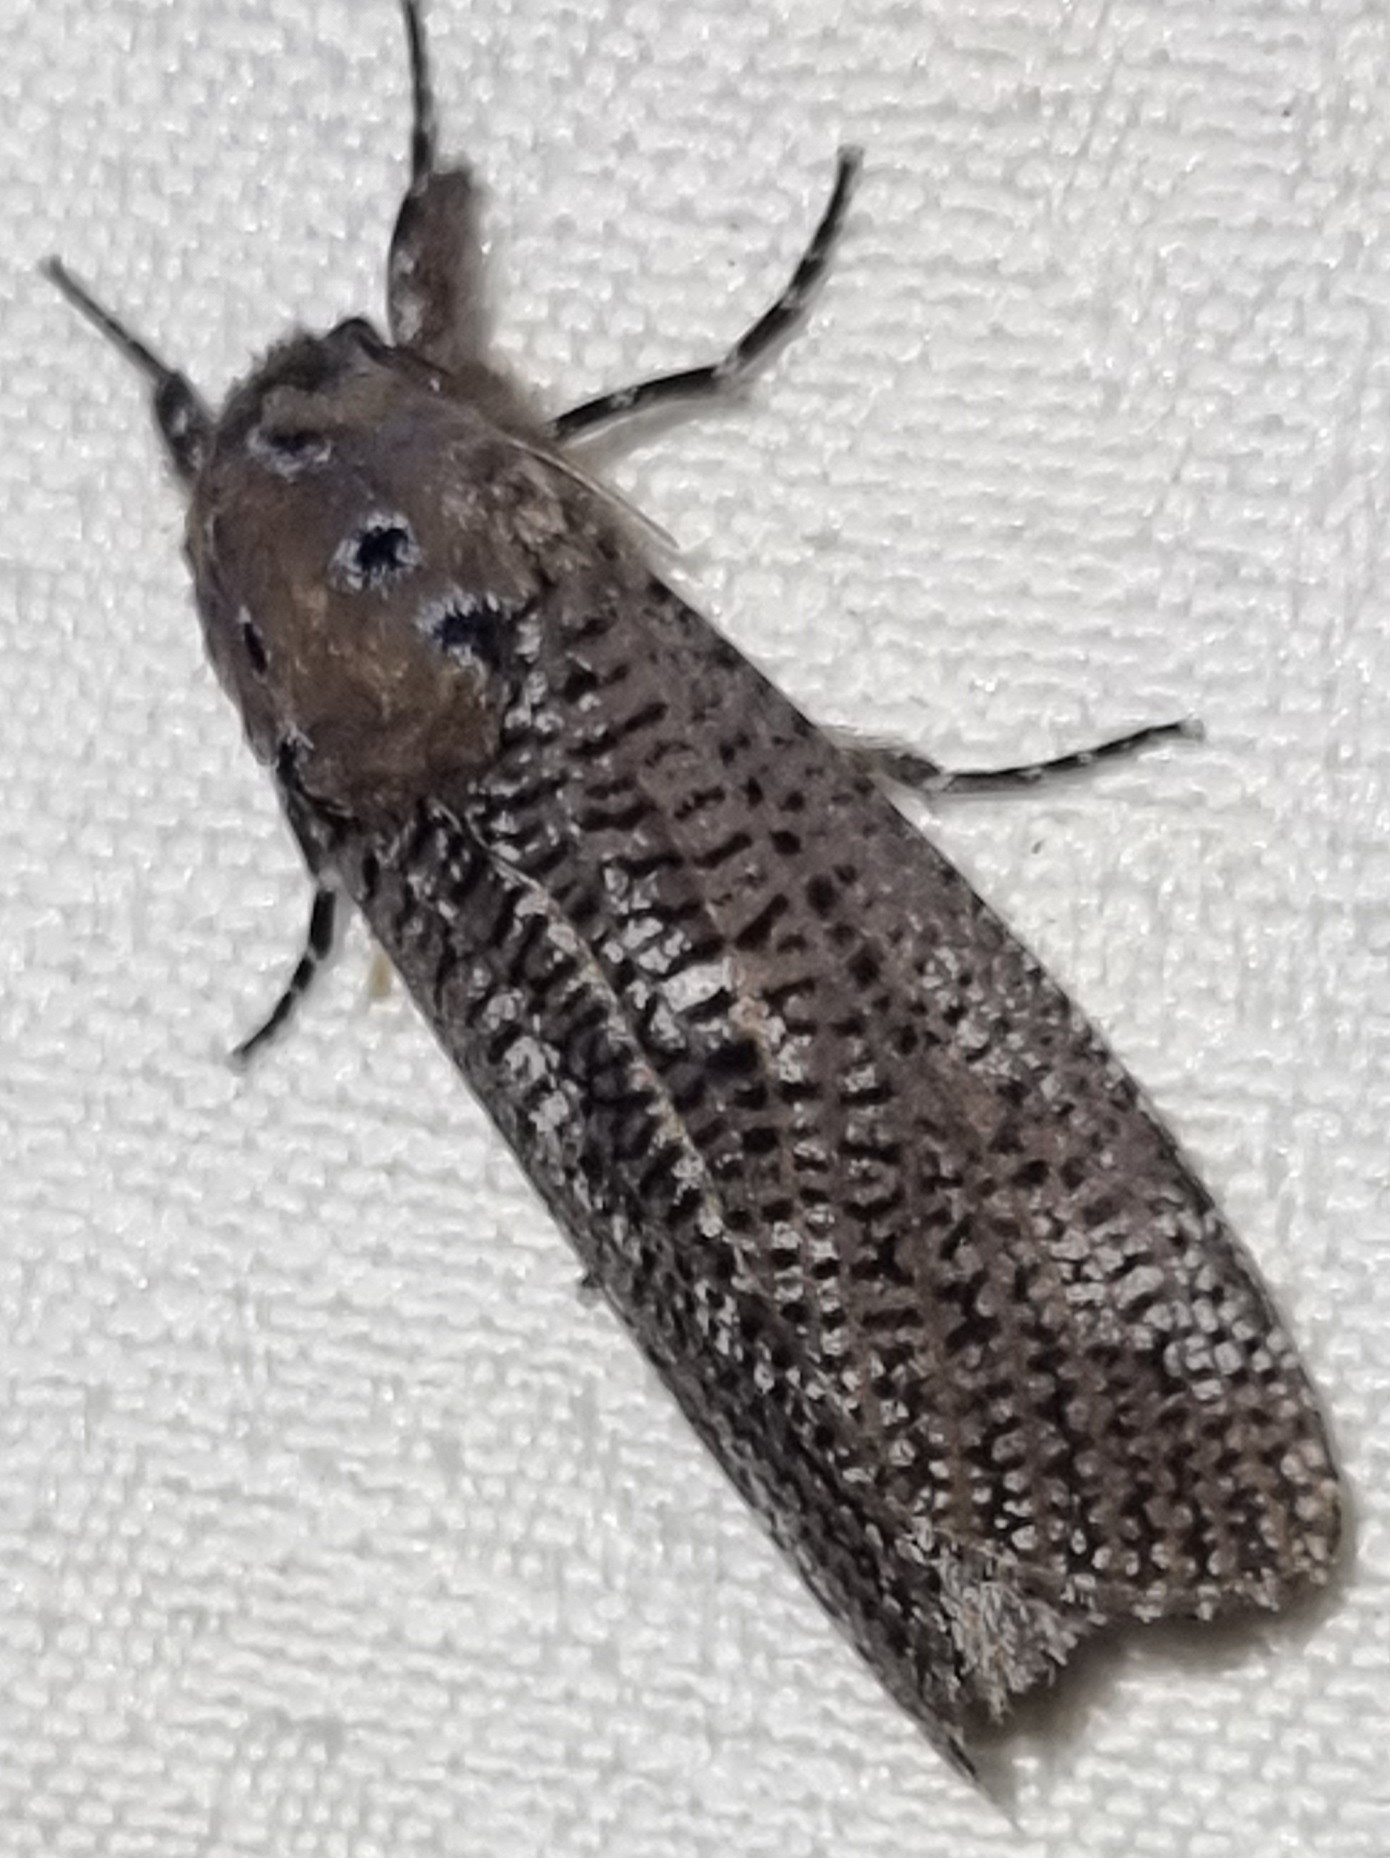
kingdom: Animalia
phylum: Arthropoda
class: Insecta
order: Lepidoptera
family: Cossidae
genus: Endoxyla
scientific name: Endoxyla dictyoschema
